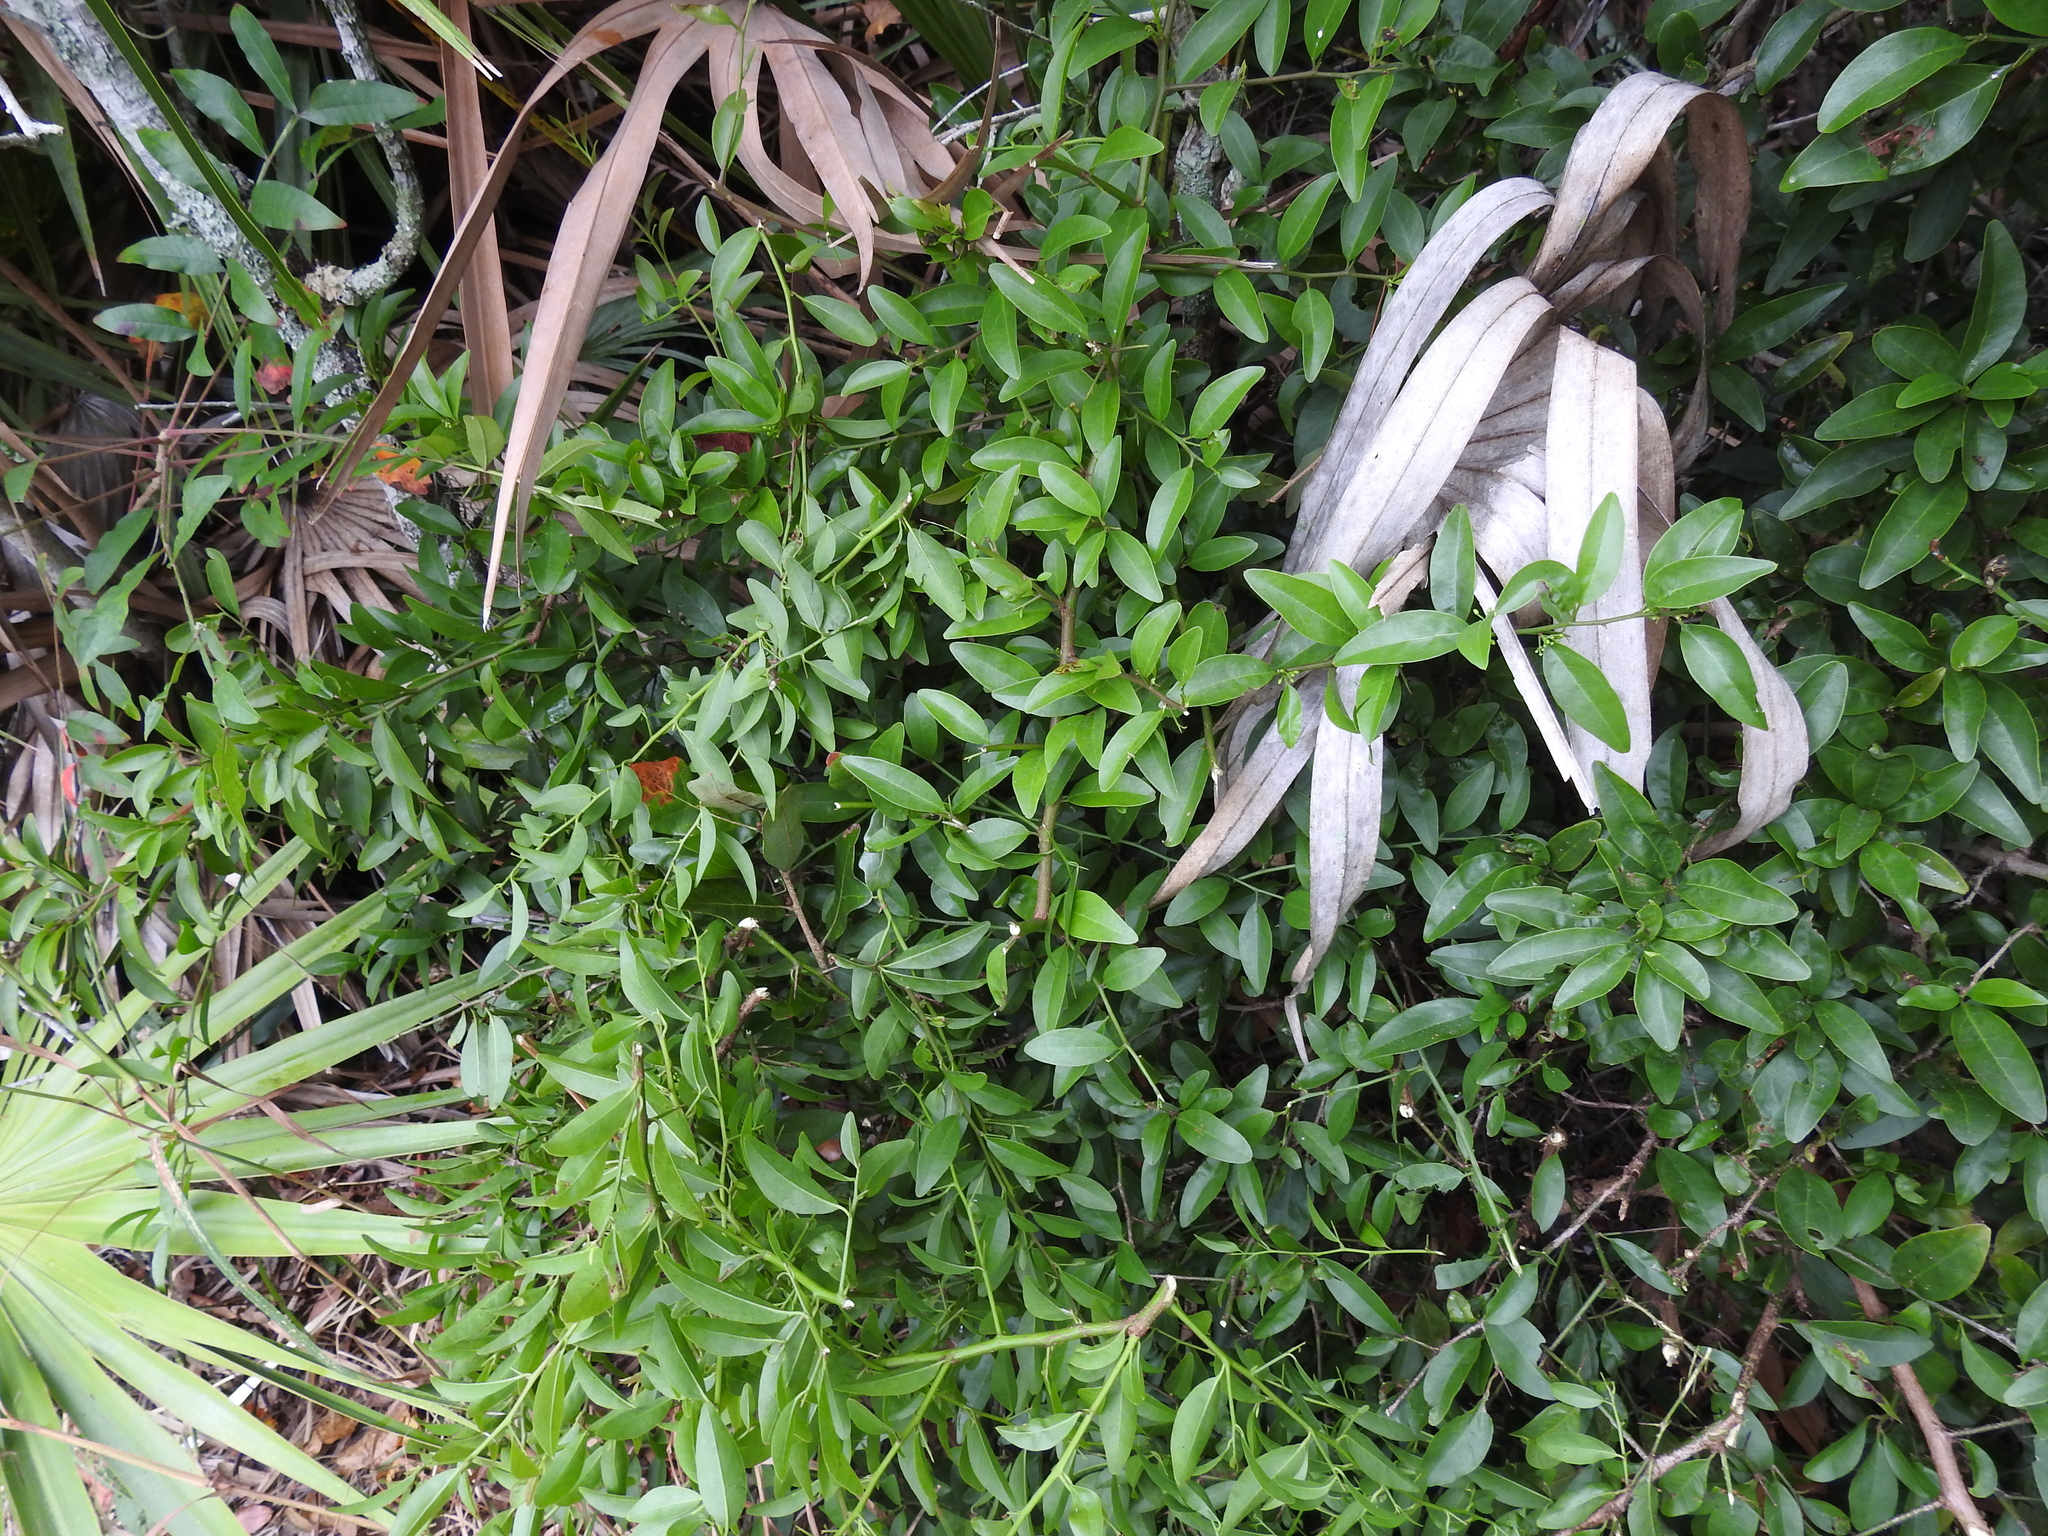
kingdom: Plantae
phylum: Tracheophyta
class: Magnoliopsida
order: Santalales
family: Ximeniaceae
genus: Ximenia
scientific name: Ximenia americana
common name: Tallowwood
